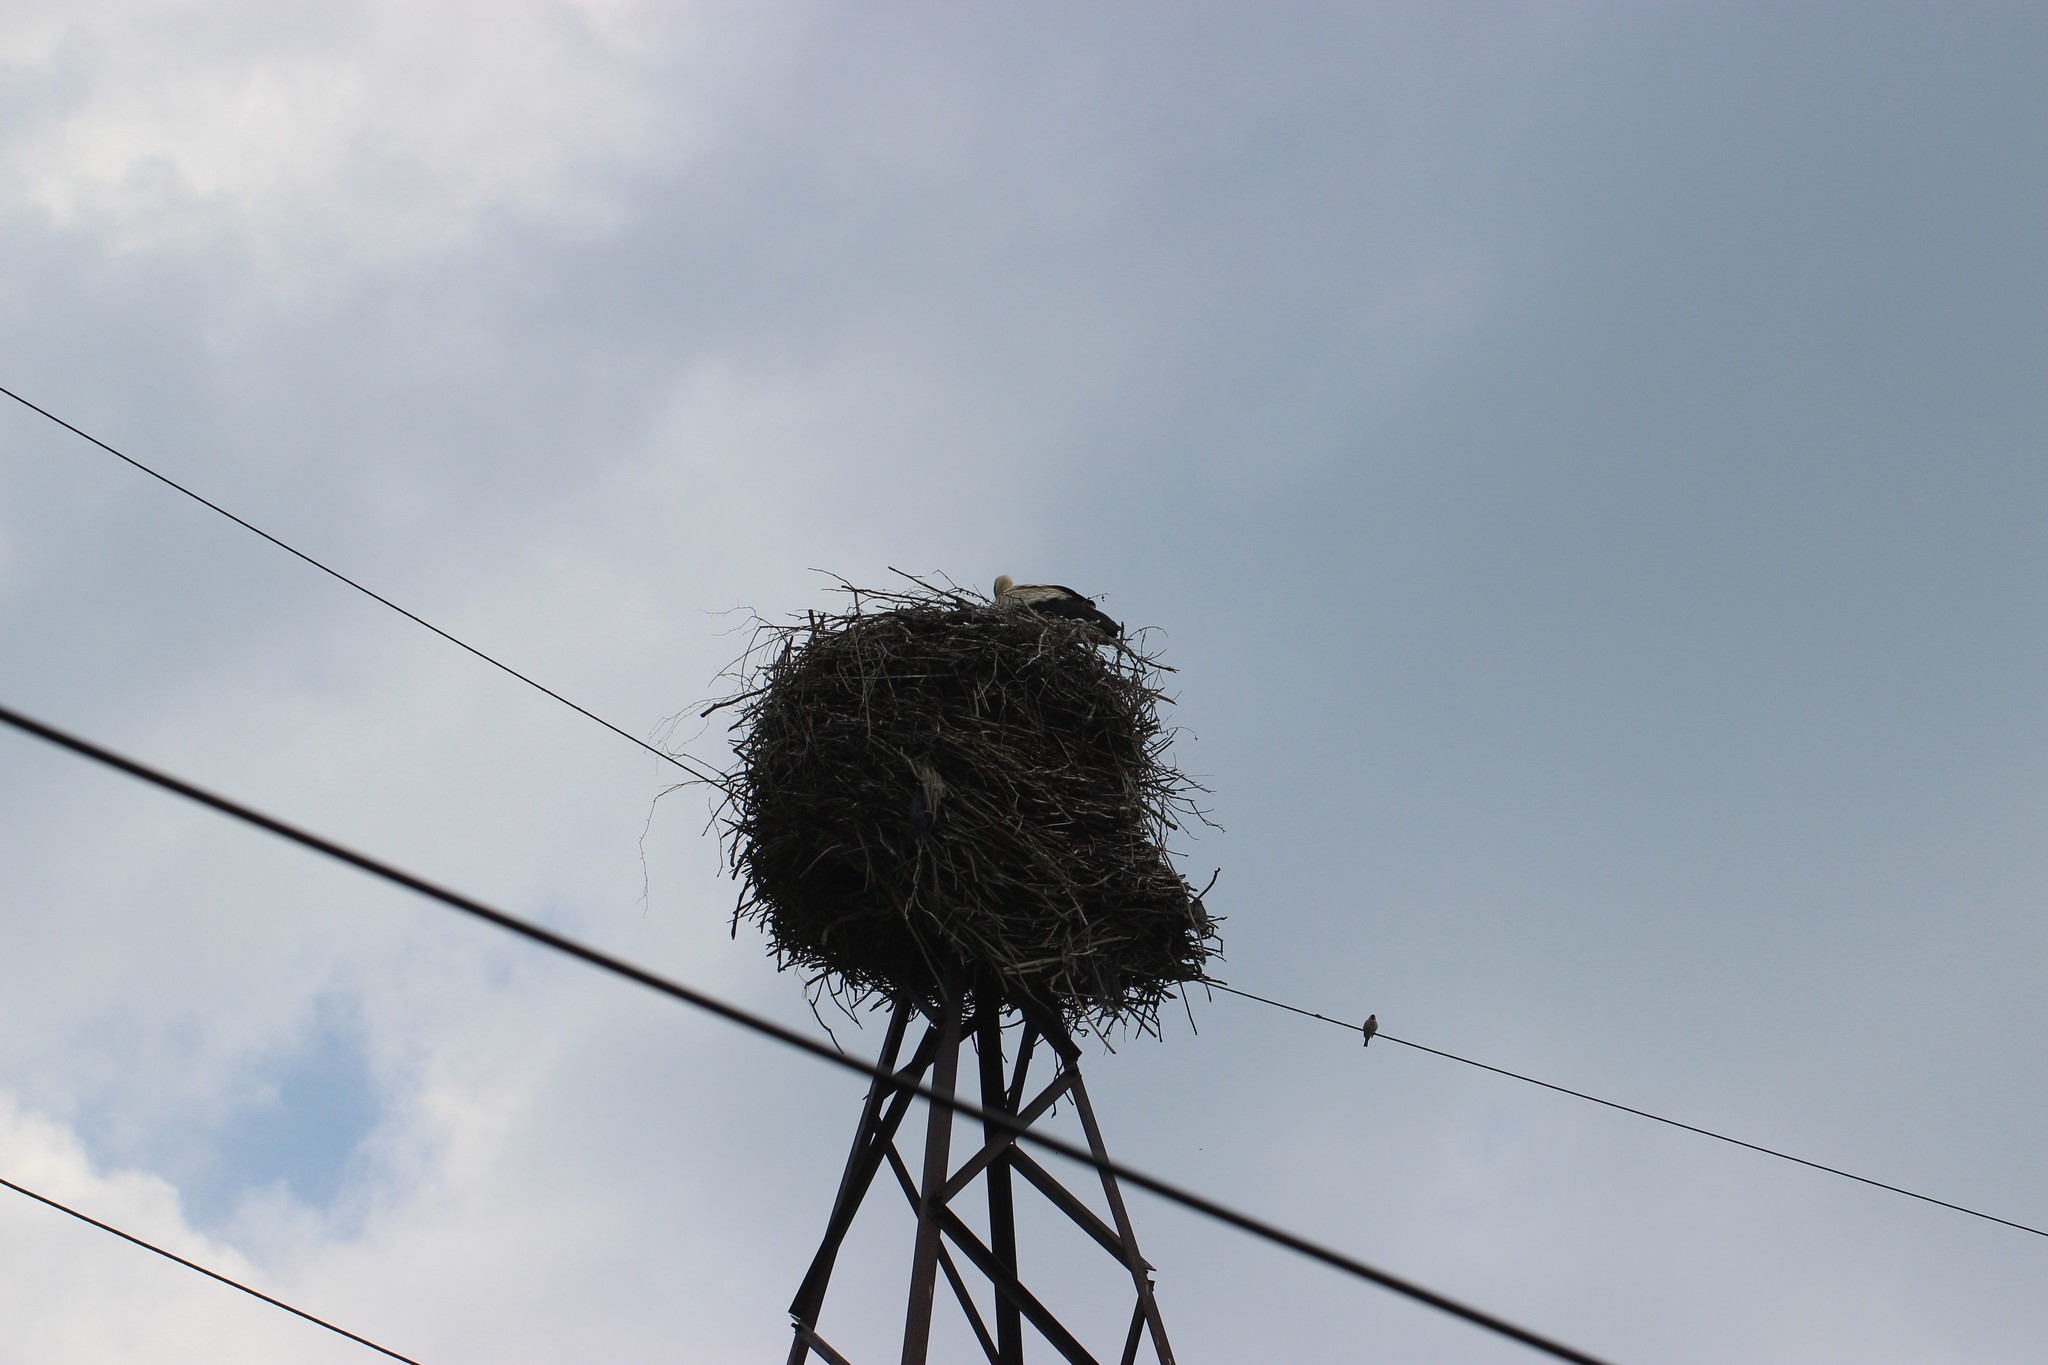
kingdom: Animalia
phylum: Chordata
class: Aves
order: Ciconiiformes
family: Ciconiidae
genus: Ciconia
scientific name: Ciconia ciconia
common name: White stork
